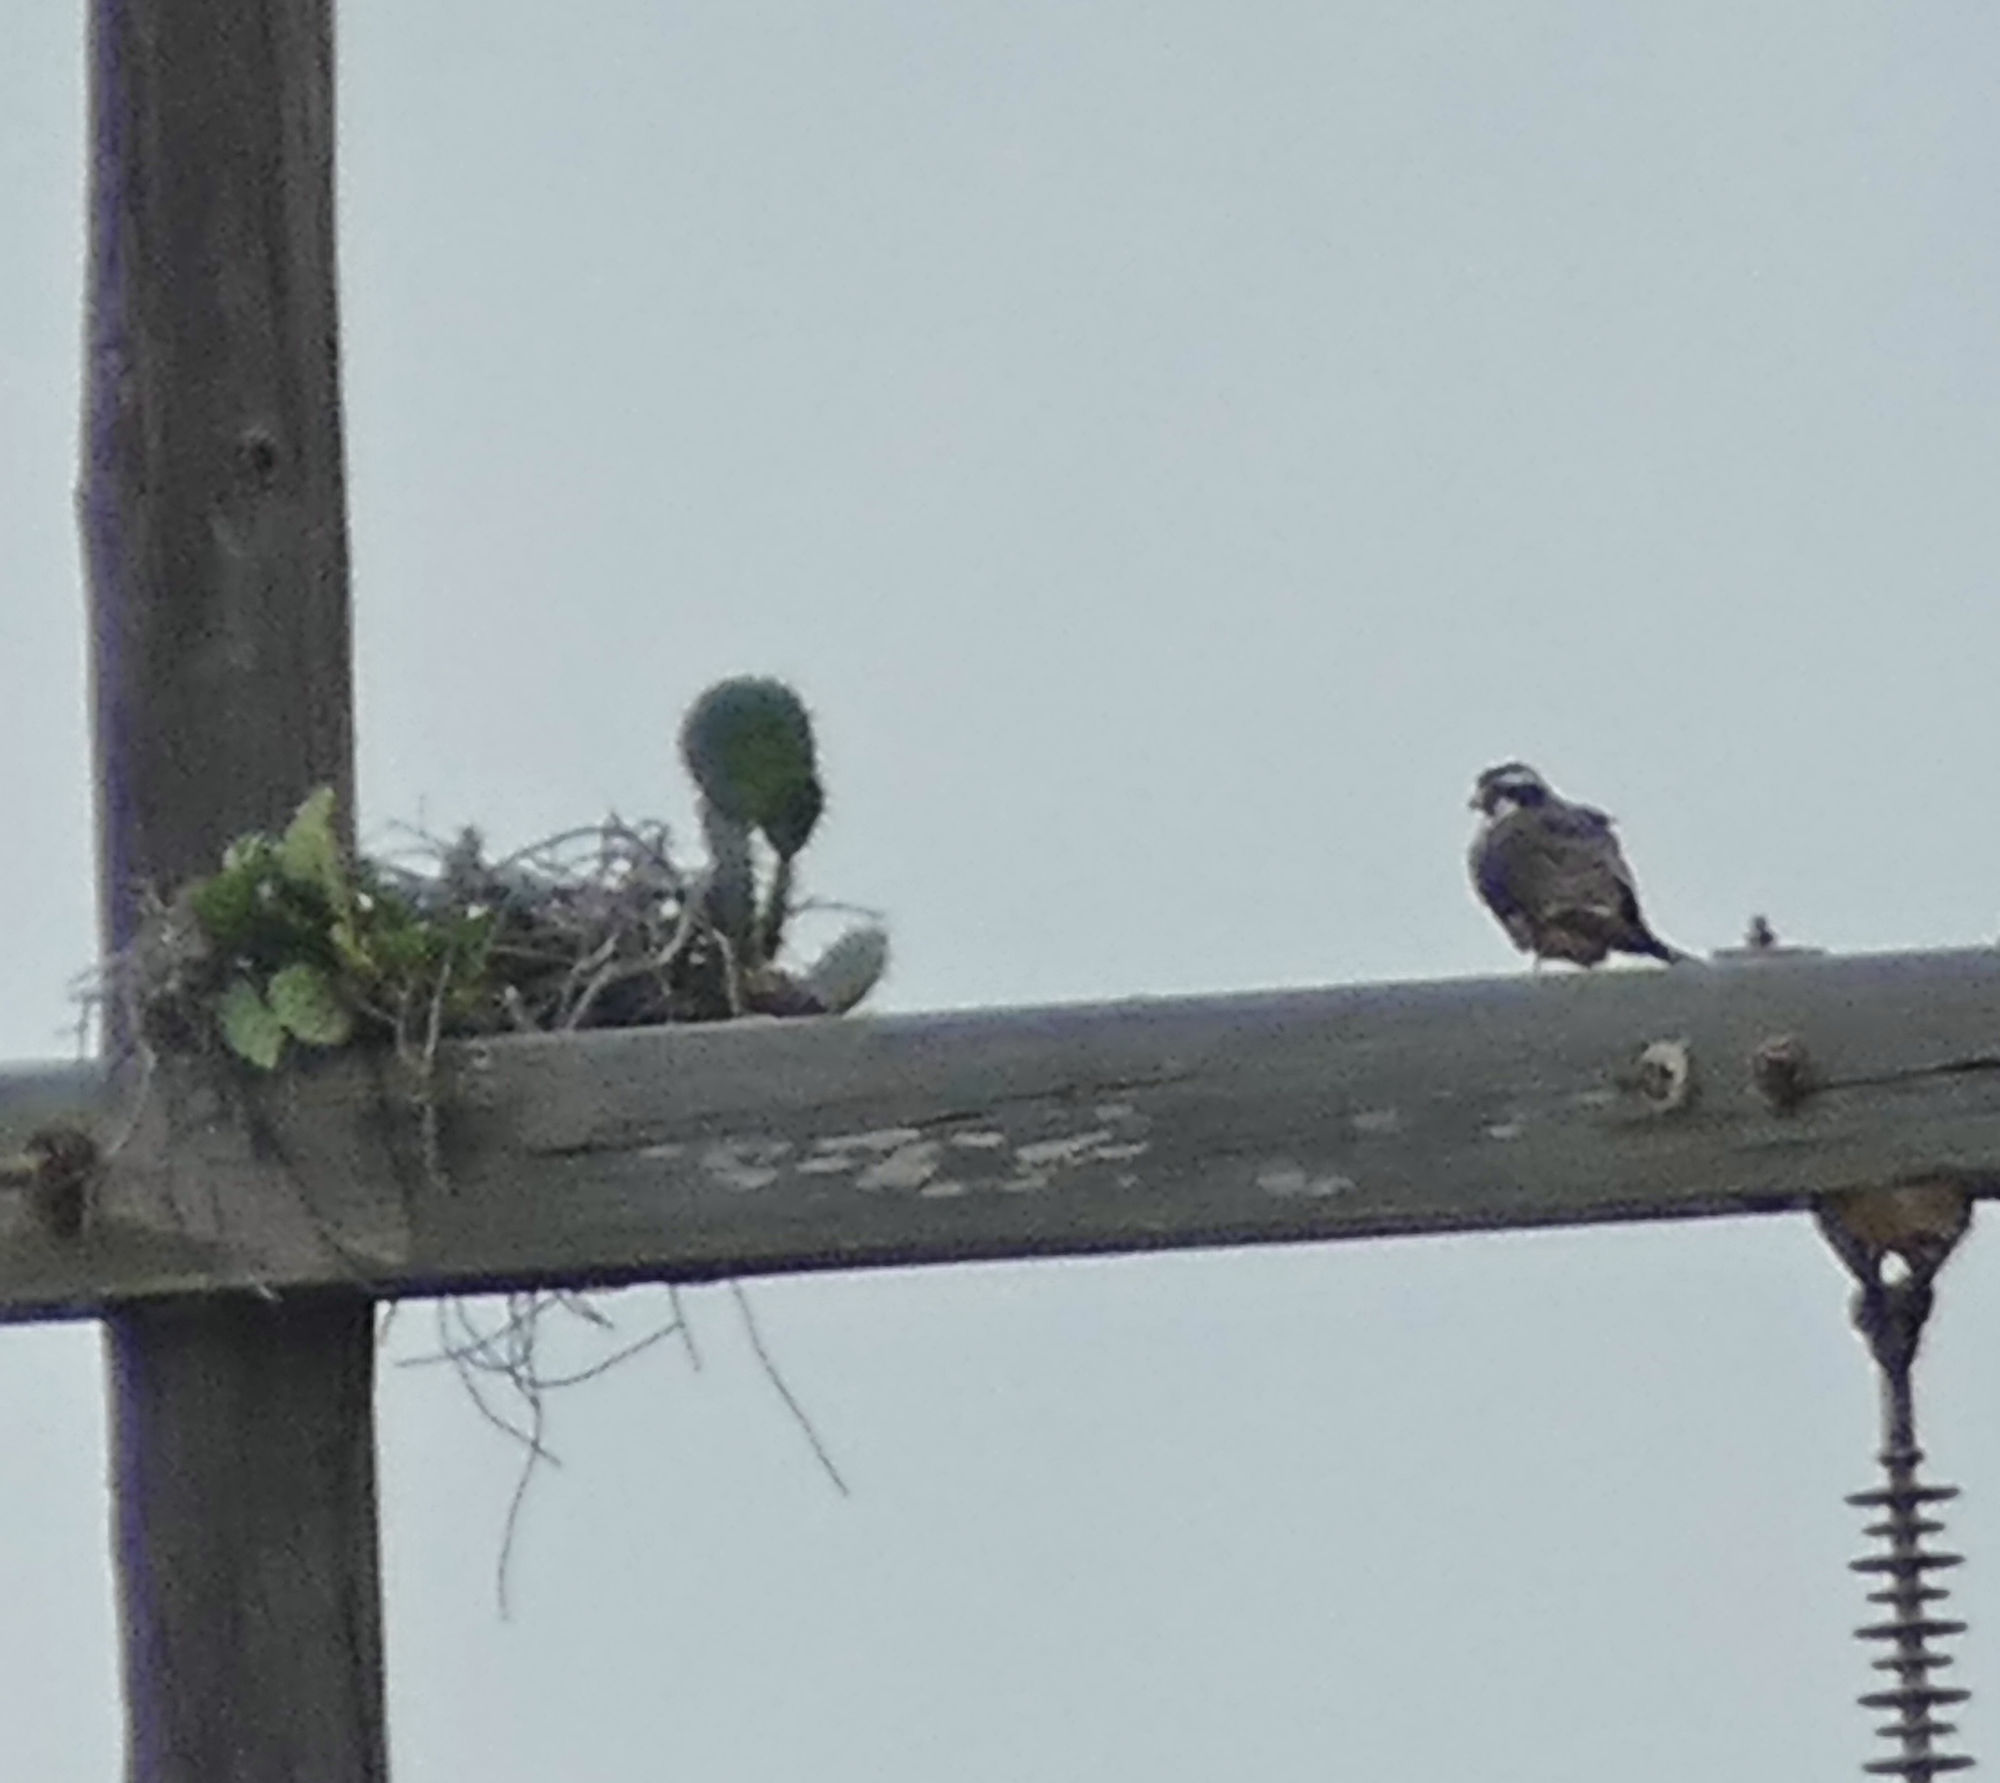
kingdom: Animalia
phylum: Chordata
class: Aves
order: Falconiformes
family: Falconidae
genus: Falco
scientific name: Falco femoralis
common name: Aplomado falcon
